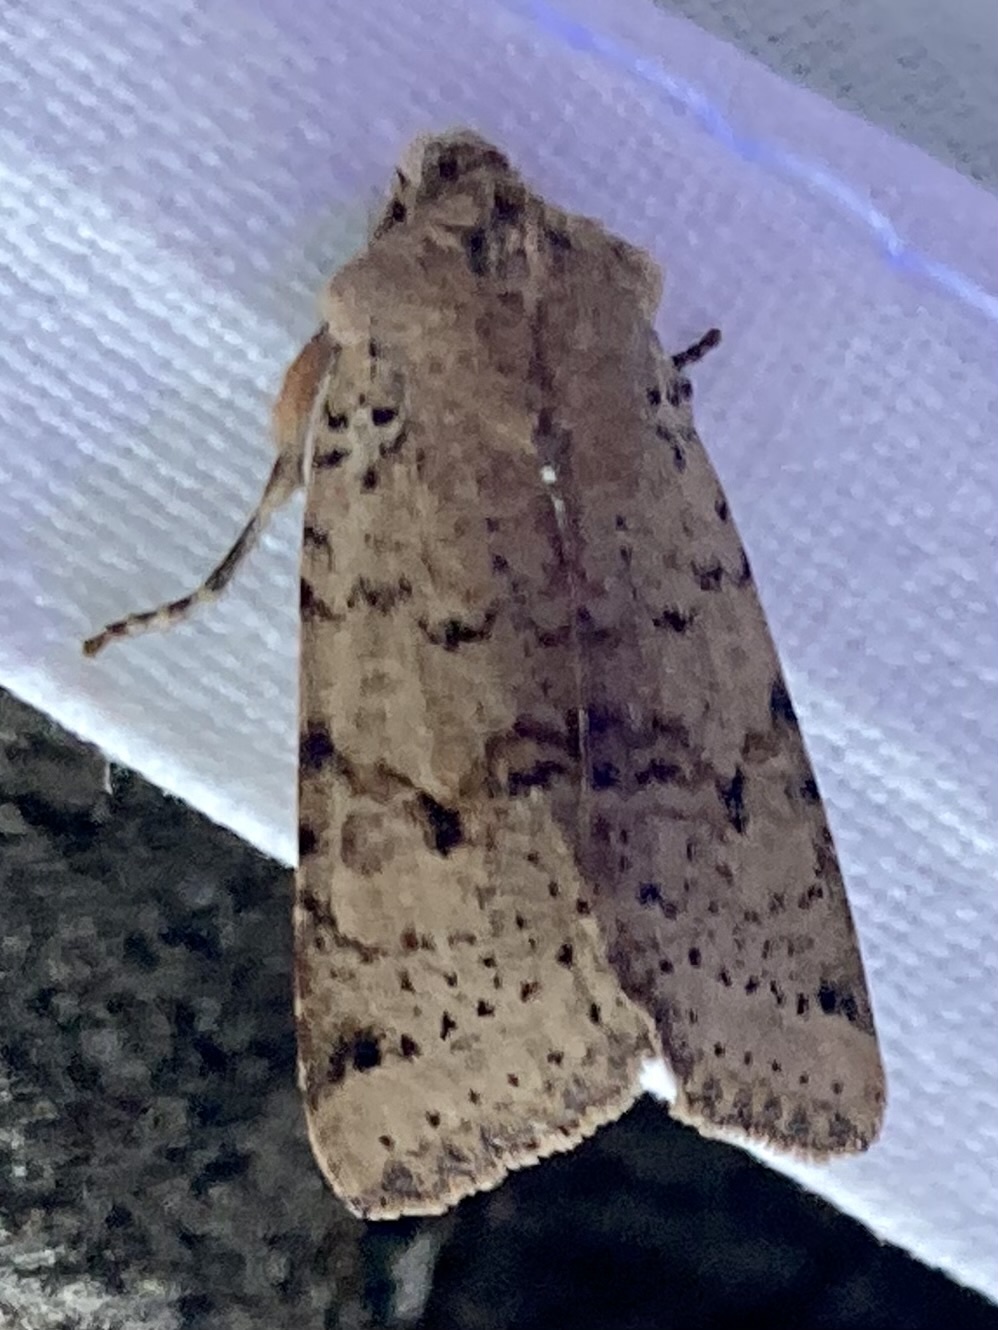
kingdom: Animalia
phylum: Arthropoda
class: Insecta
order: Lepidoptera
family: Noctuidae
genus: Agrochola
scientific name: Agrochola ruticilla
